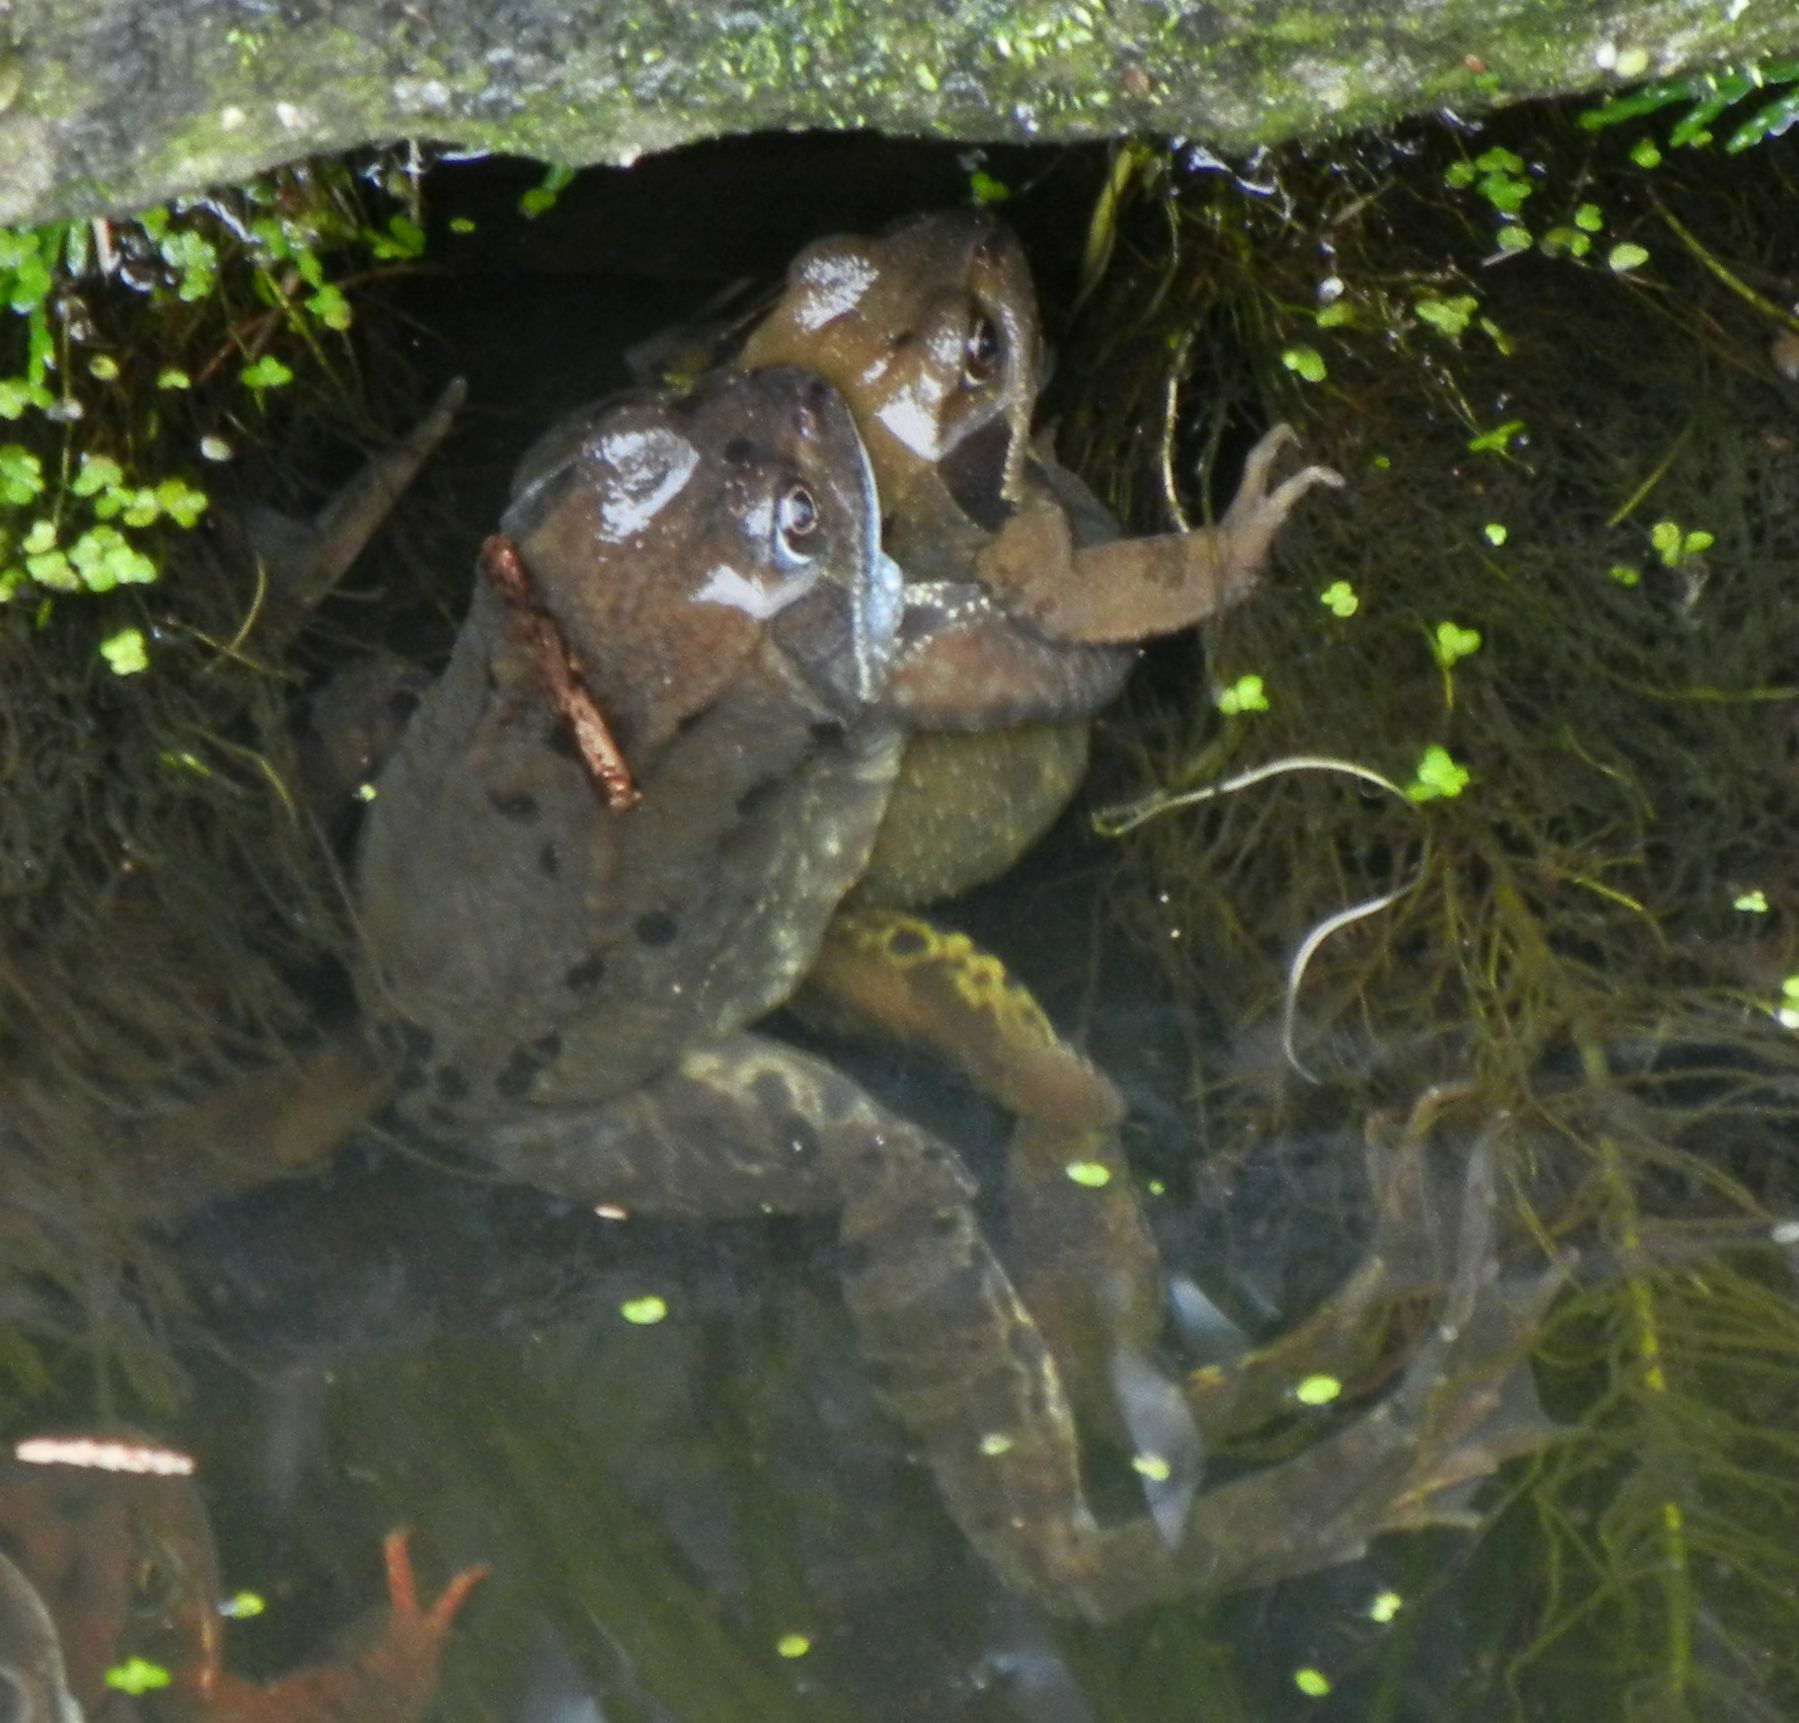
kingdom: Animalia
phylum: Chordata
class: Amphibia
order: Anura
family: Ranidae
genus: Rana
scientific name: Rana temporaria
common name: Common frog
